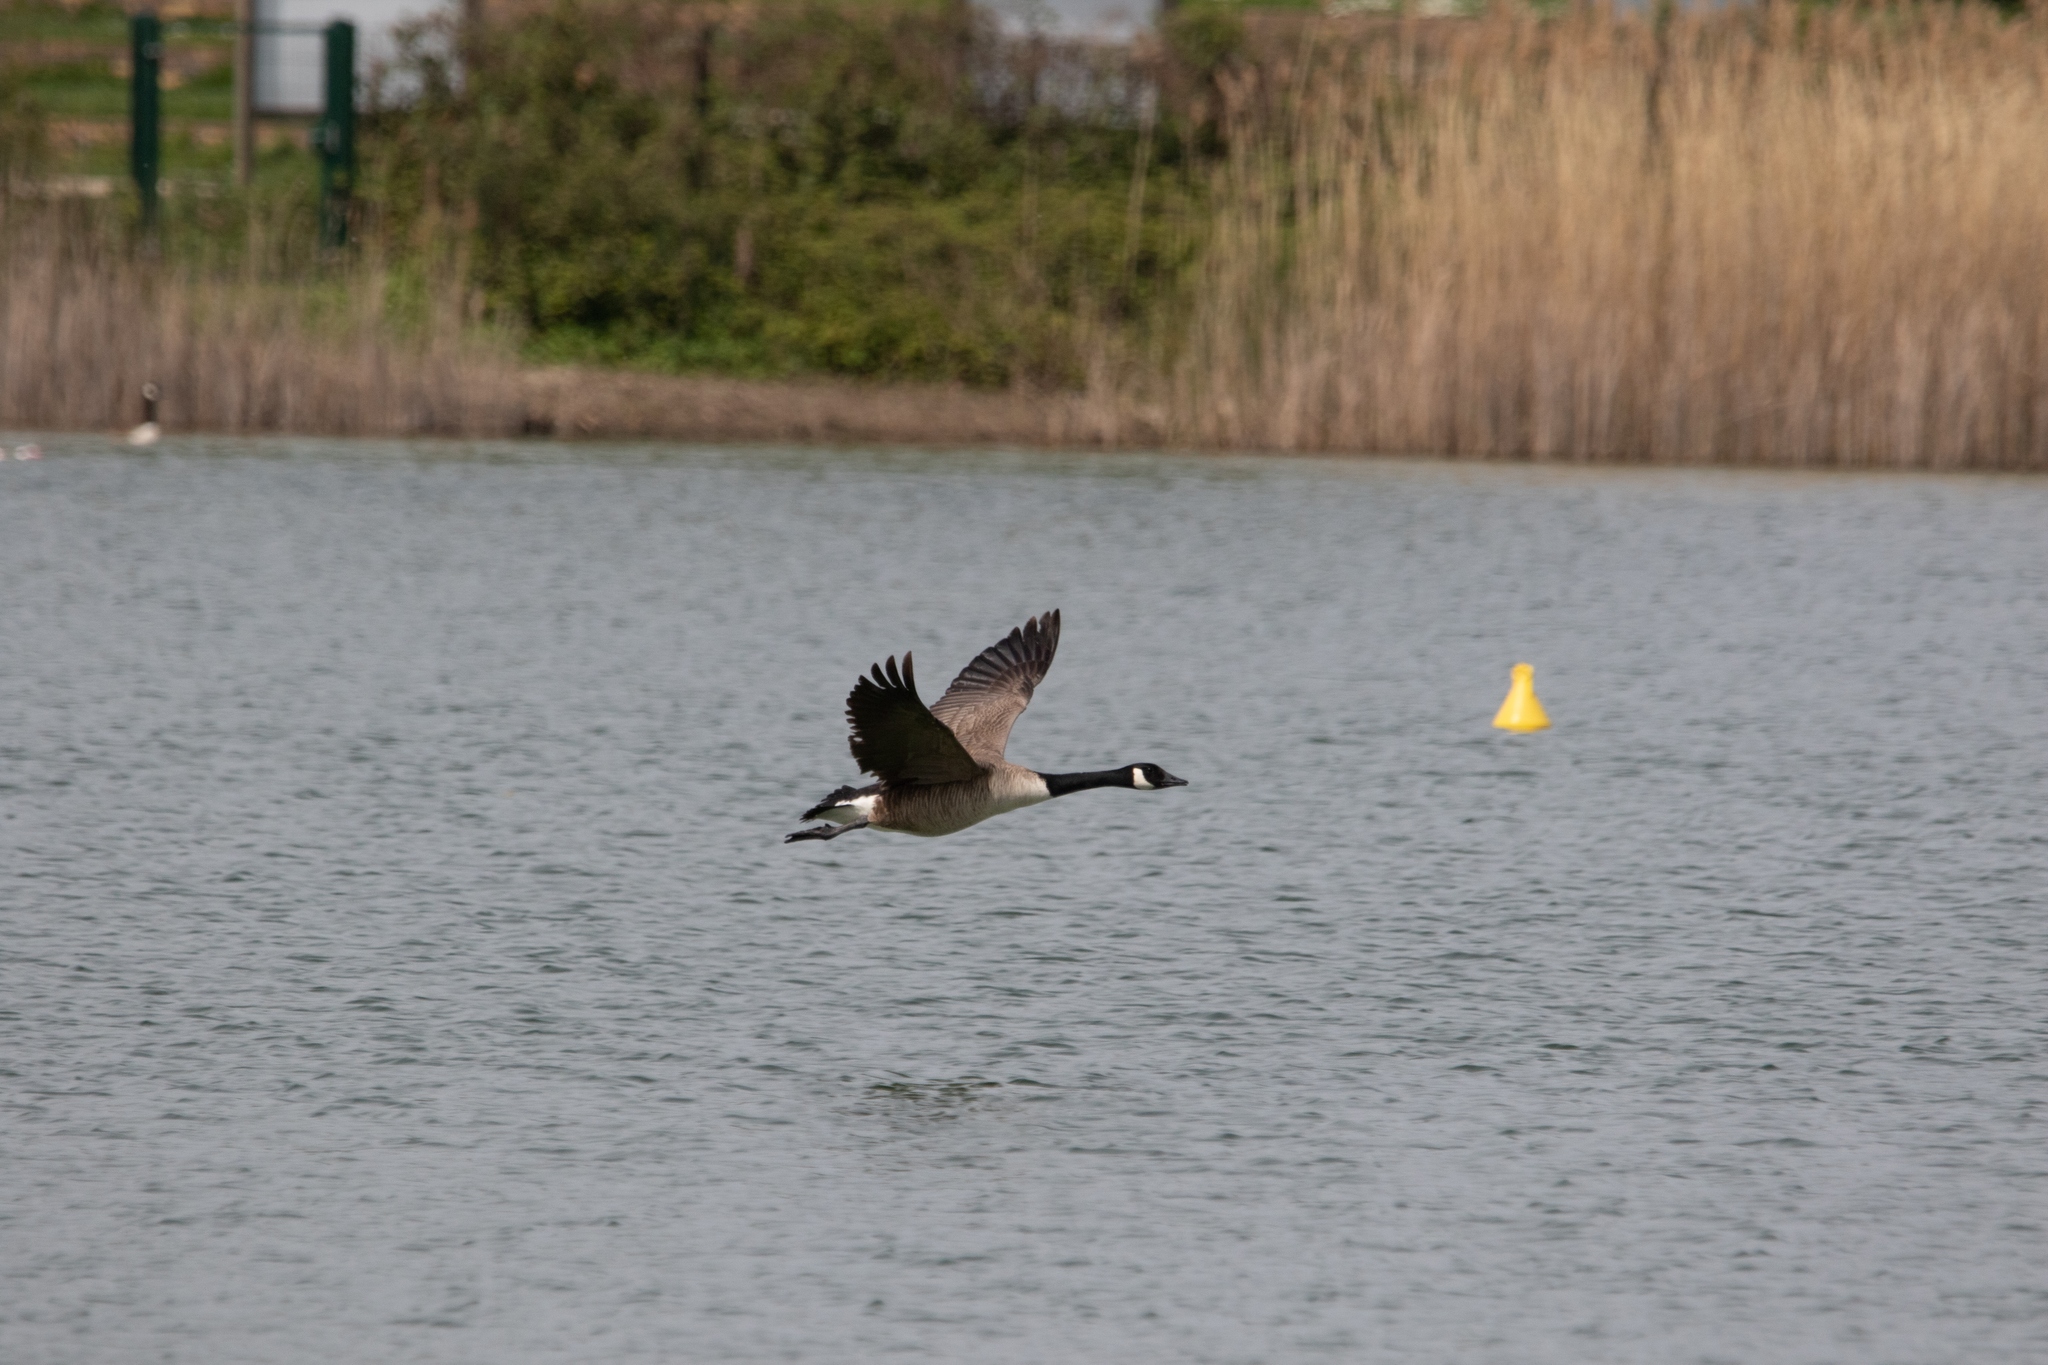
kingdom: Animalia
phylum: Chordata
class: Aves
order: Anseriformes
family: Anatidae
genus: Branta
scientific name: Branta canadensis
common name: Canada goose
